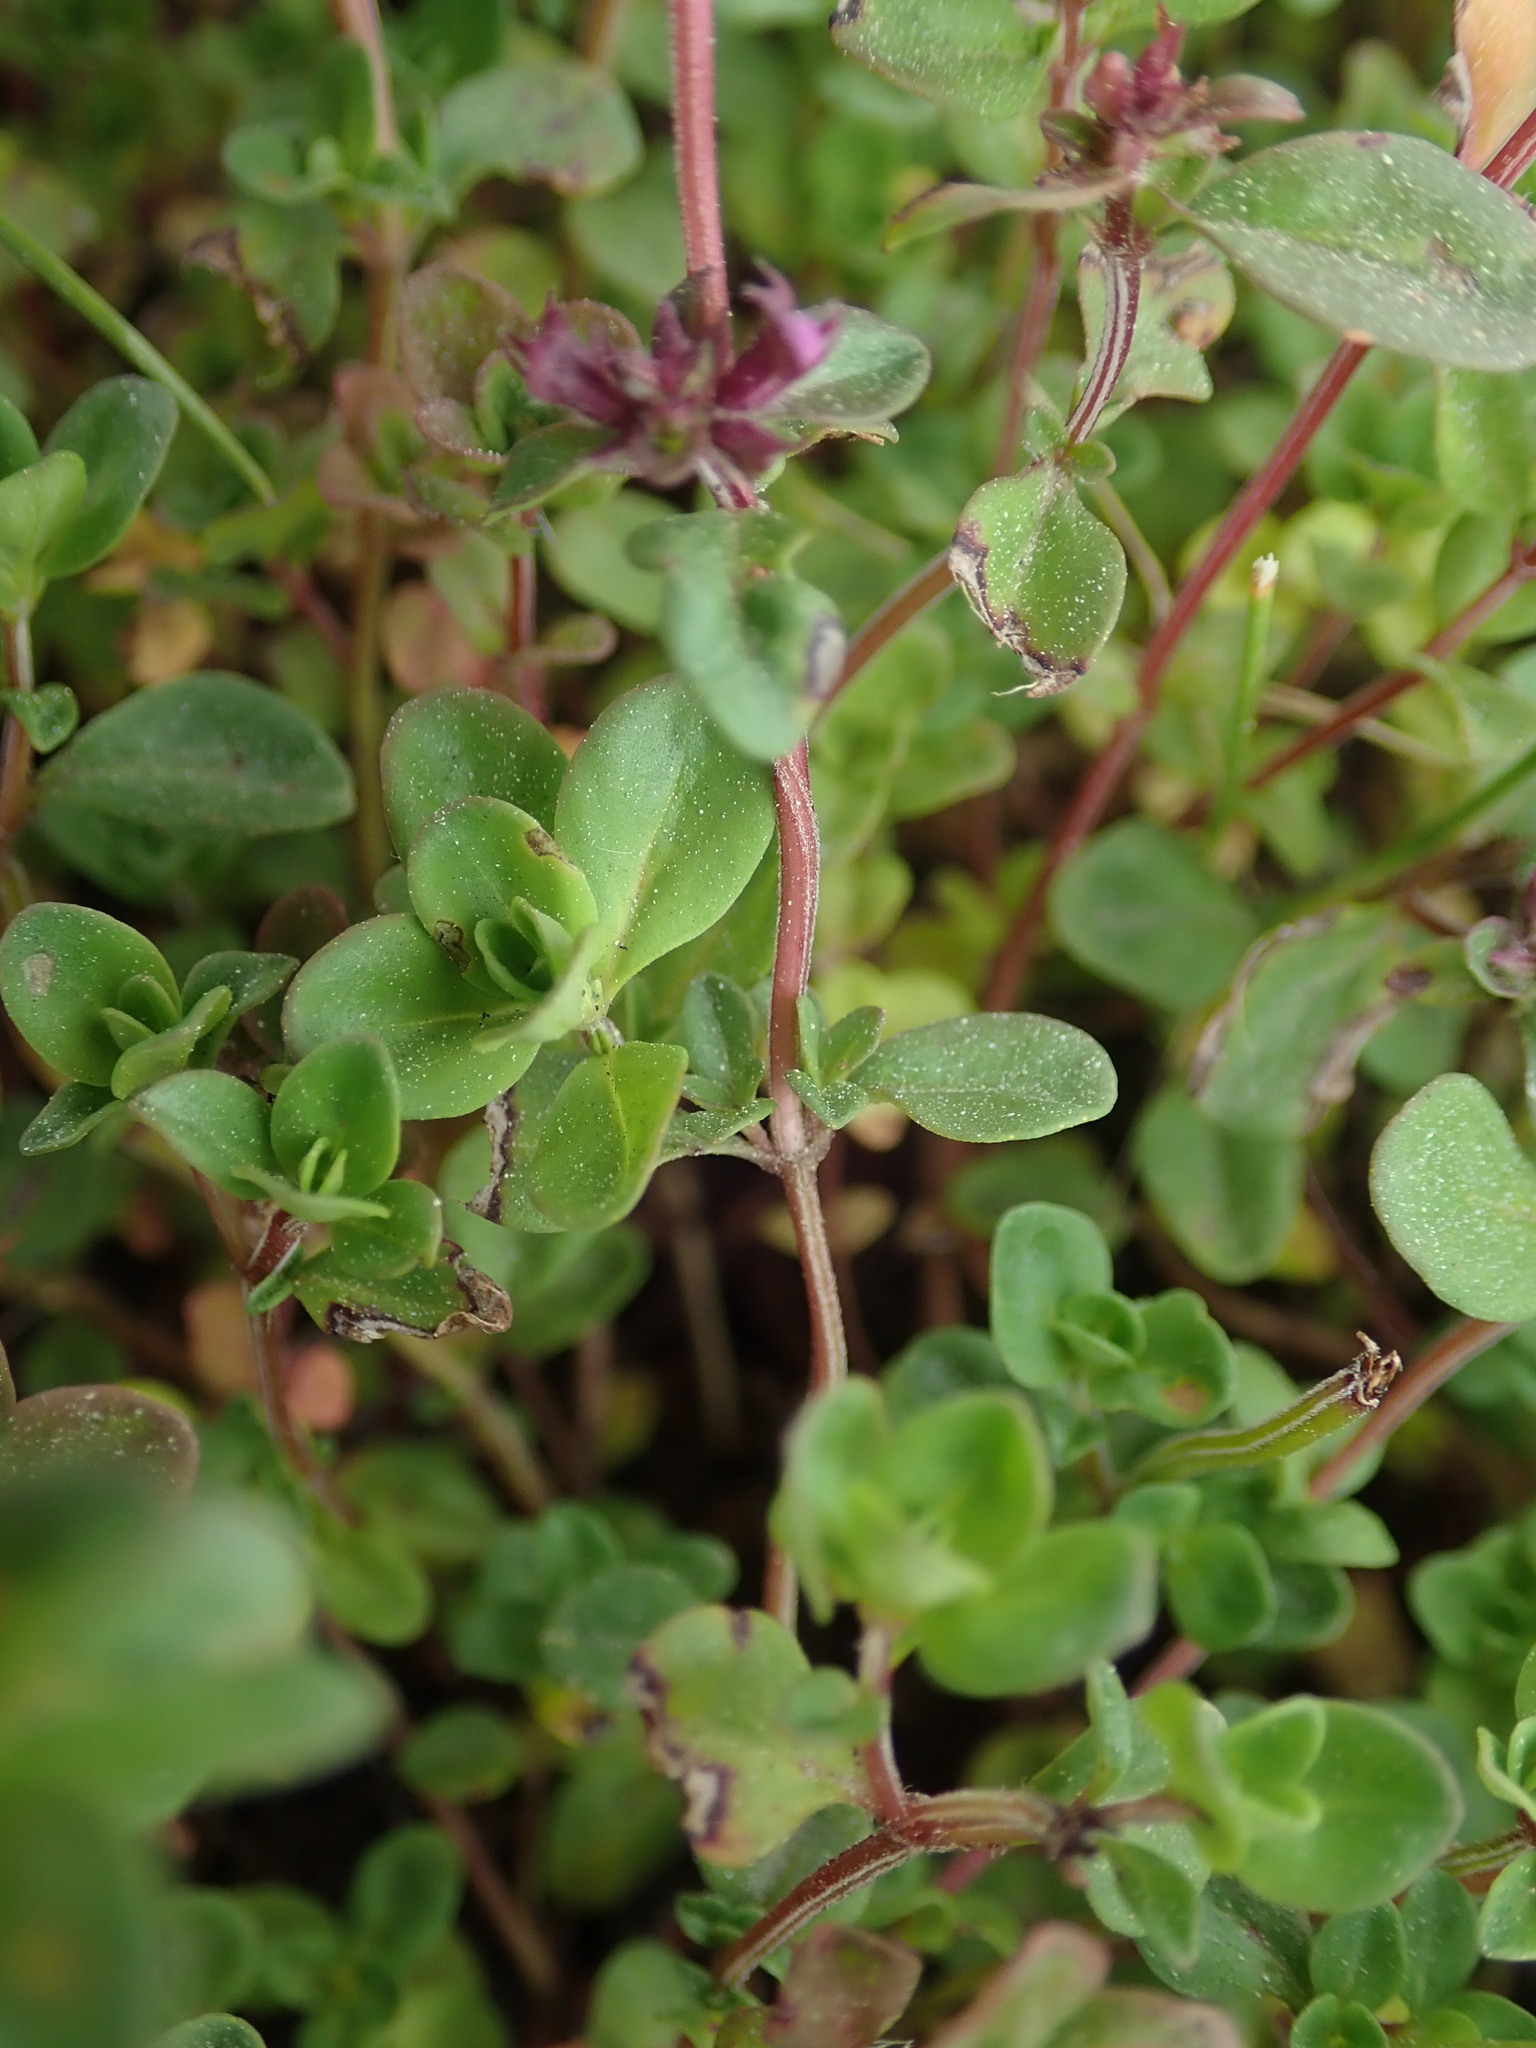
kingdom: Plantae
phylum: Tracheophyta
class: Magnoliopsida
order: Lamiales
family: Lamiaceae
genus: Thymus
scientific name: Thymus pulegioides
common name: Large thyme
